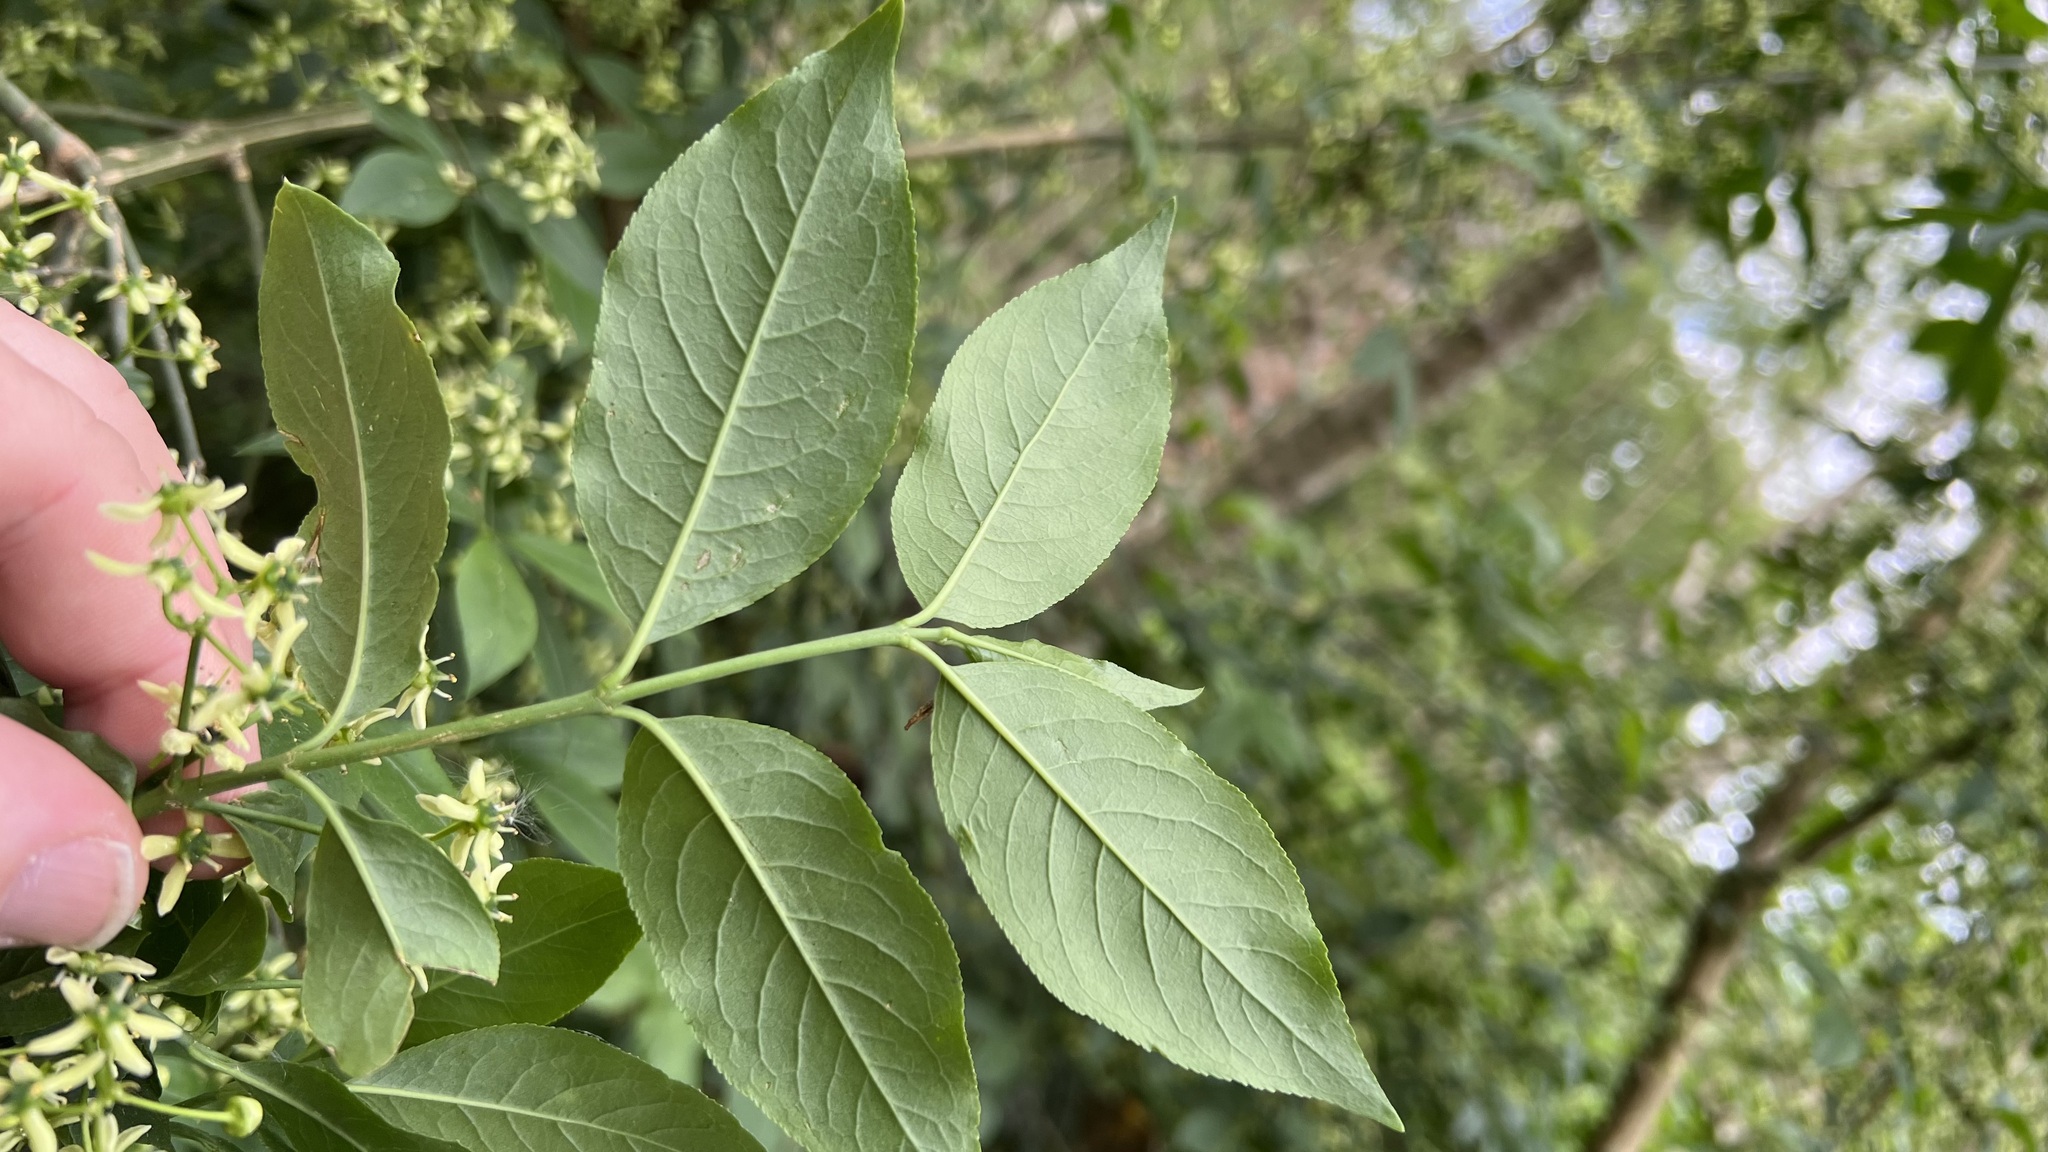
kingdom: Plantae
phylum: Tracheophyta
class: Magnoliopsida
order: Celastrales
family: Celastraceae
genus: Euonymus
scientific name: Euonymus europaeus
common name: Spindle
